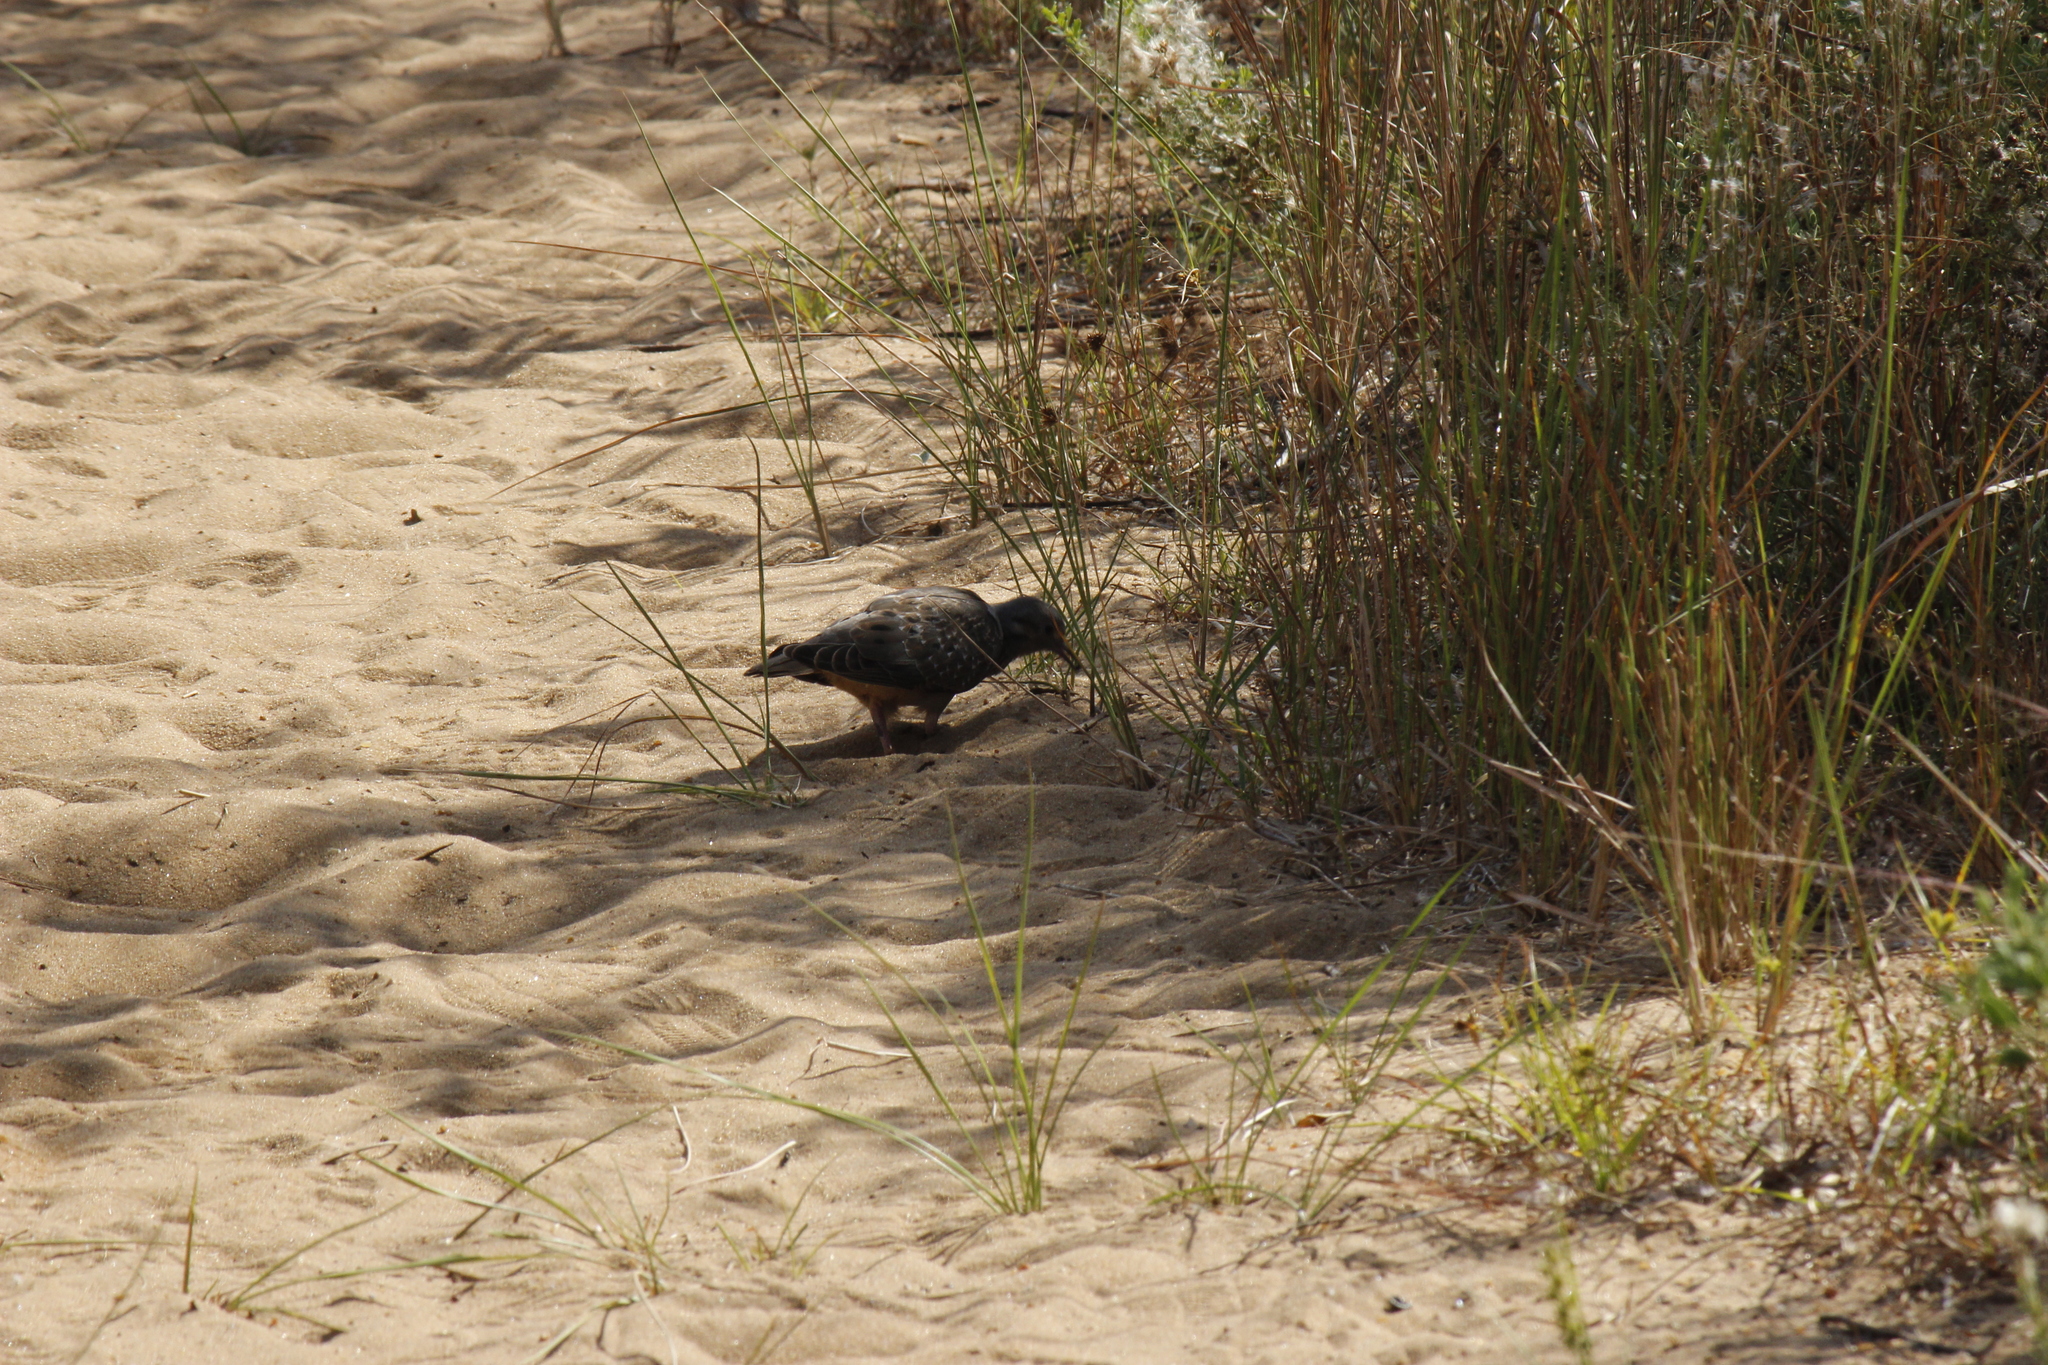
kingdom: Animalia
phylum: Chordata
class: Aves
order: Columbiformes
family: Columbidae
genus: Zenaida
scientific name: Zenaida auriculata
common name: Eared dove
